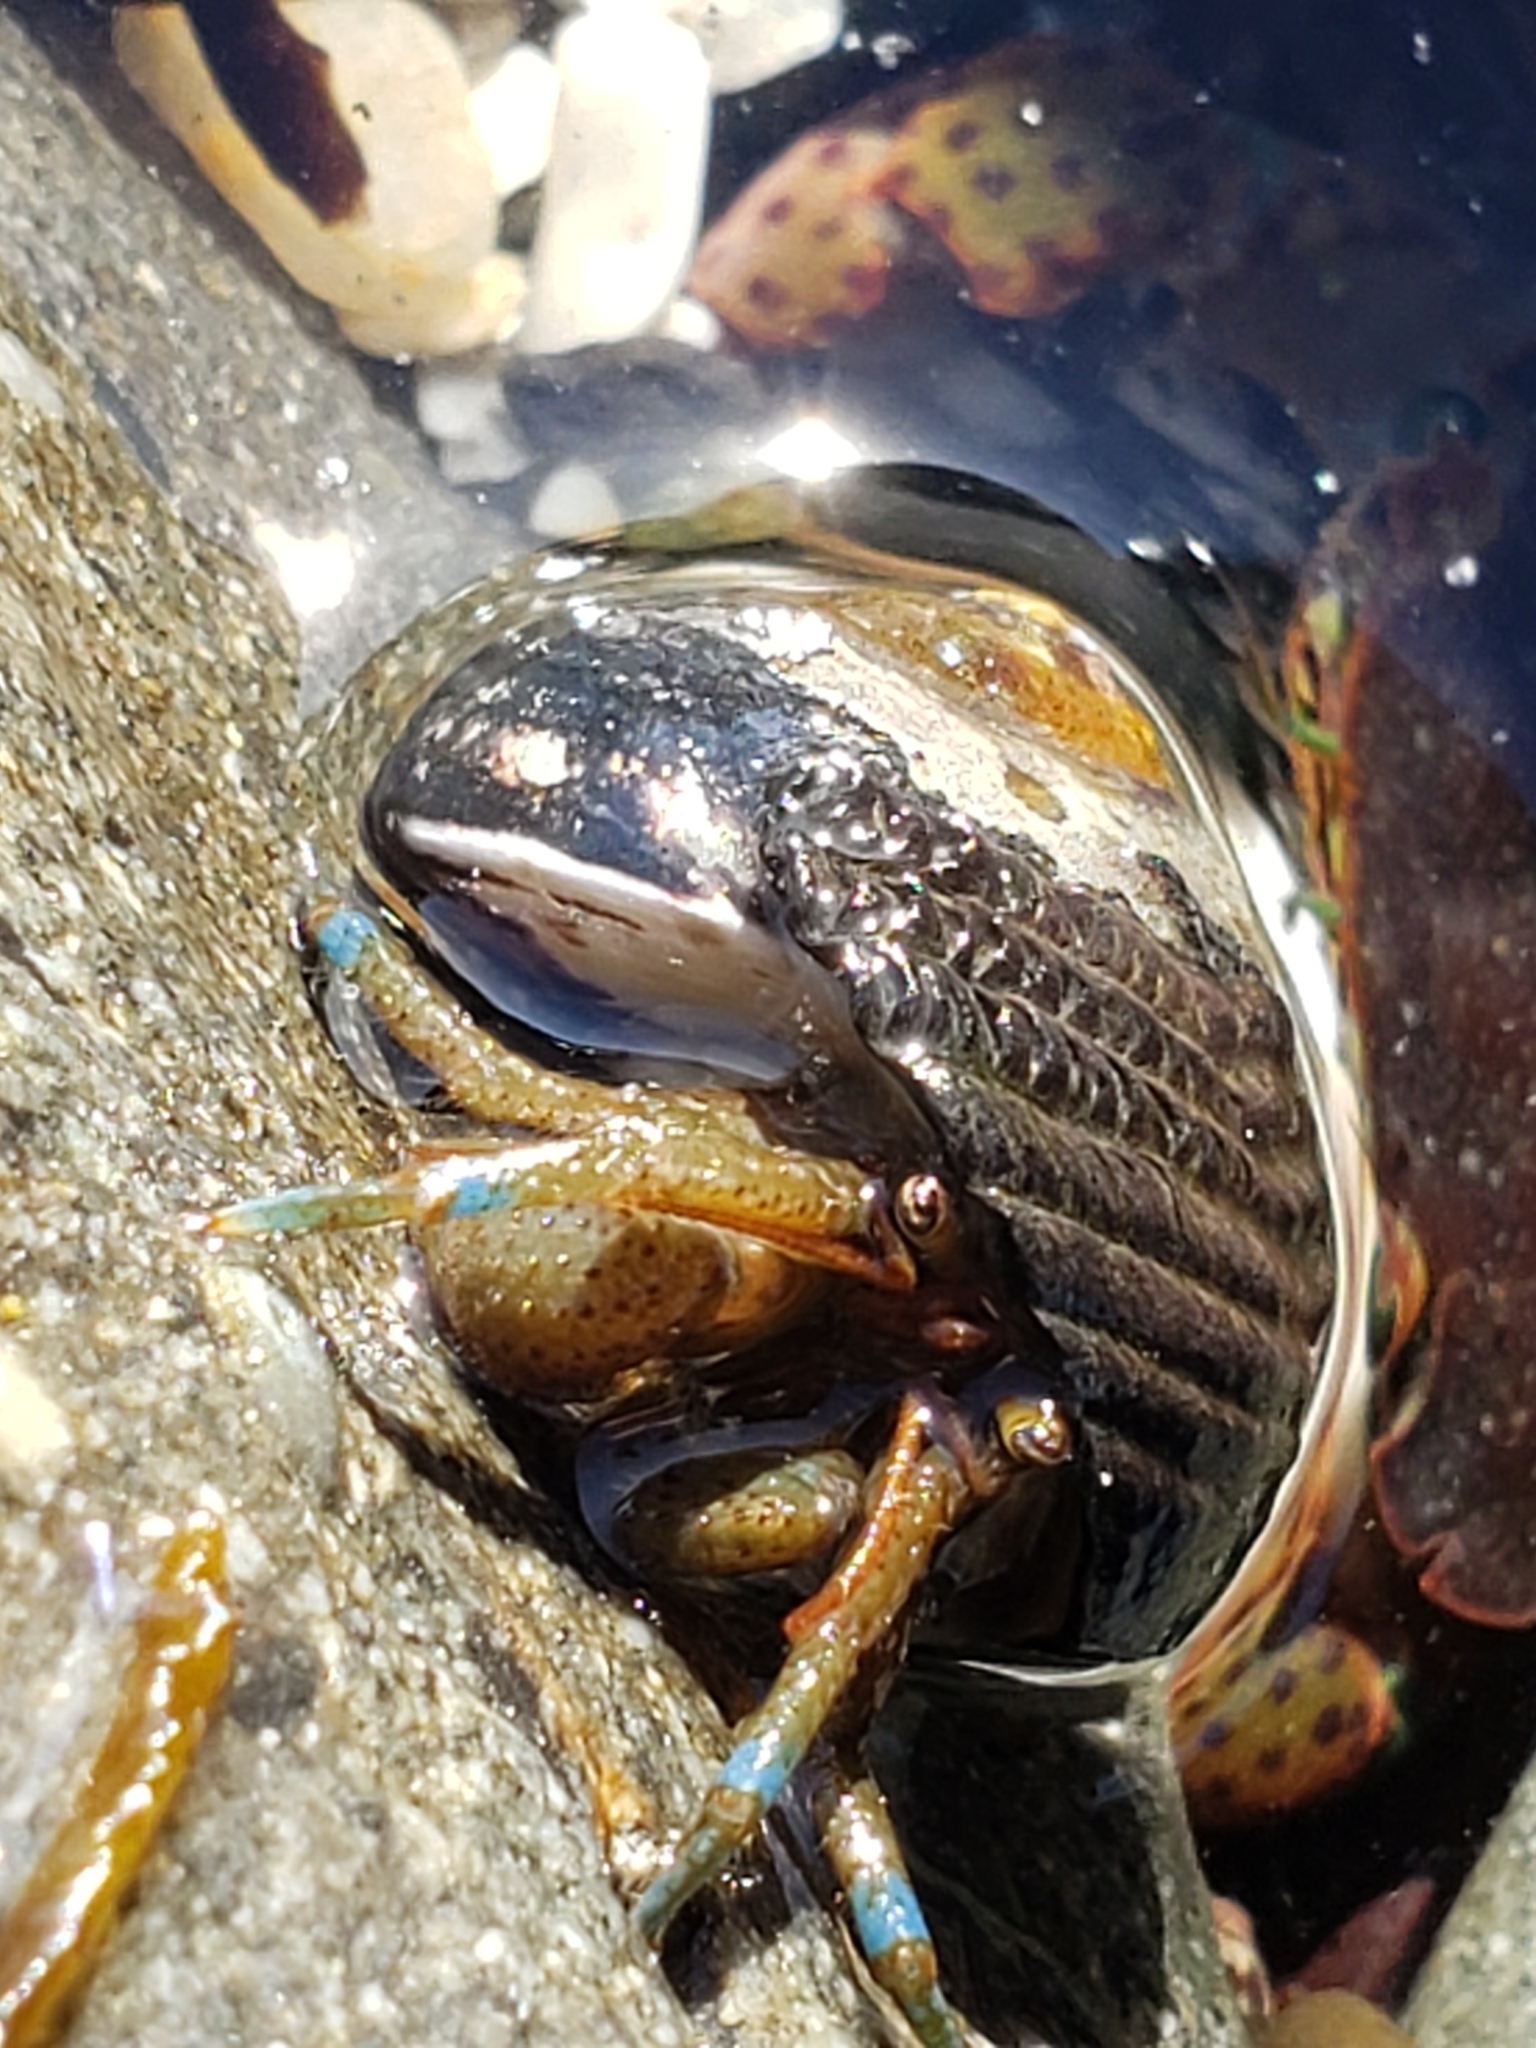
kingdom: Animalia
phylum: Arthropoda
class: Malacostraca
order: Decapoda
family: Paguridae
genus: Pagurus
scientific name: Pagurus samuelis
